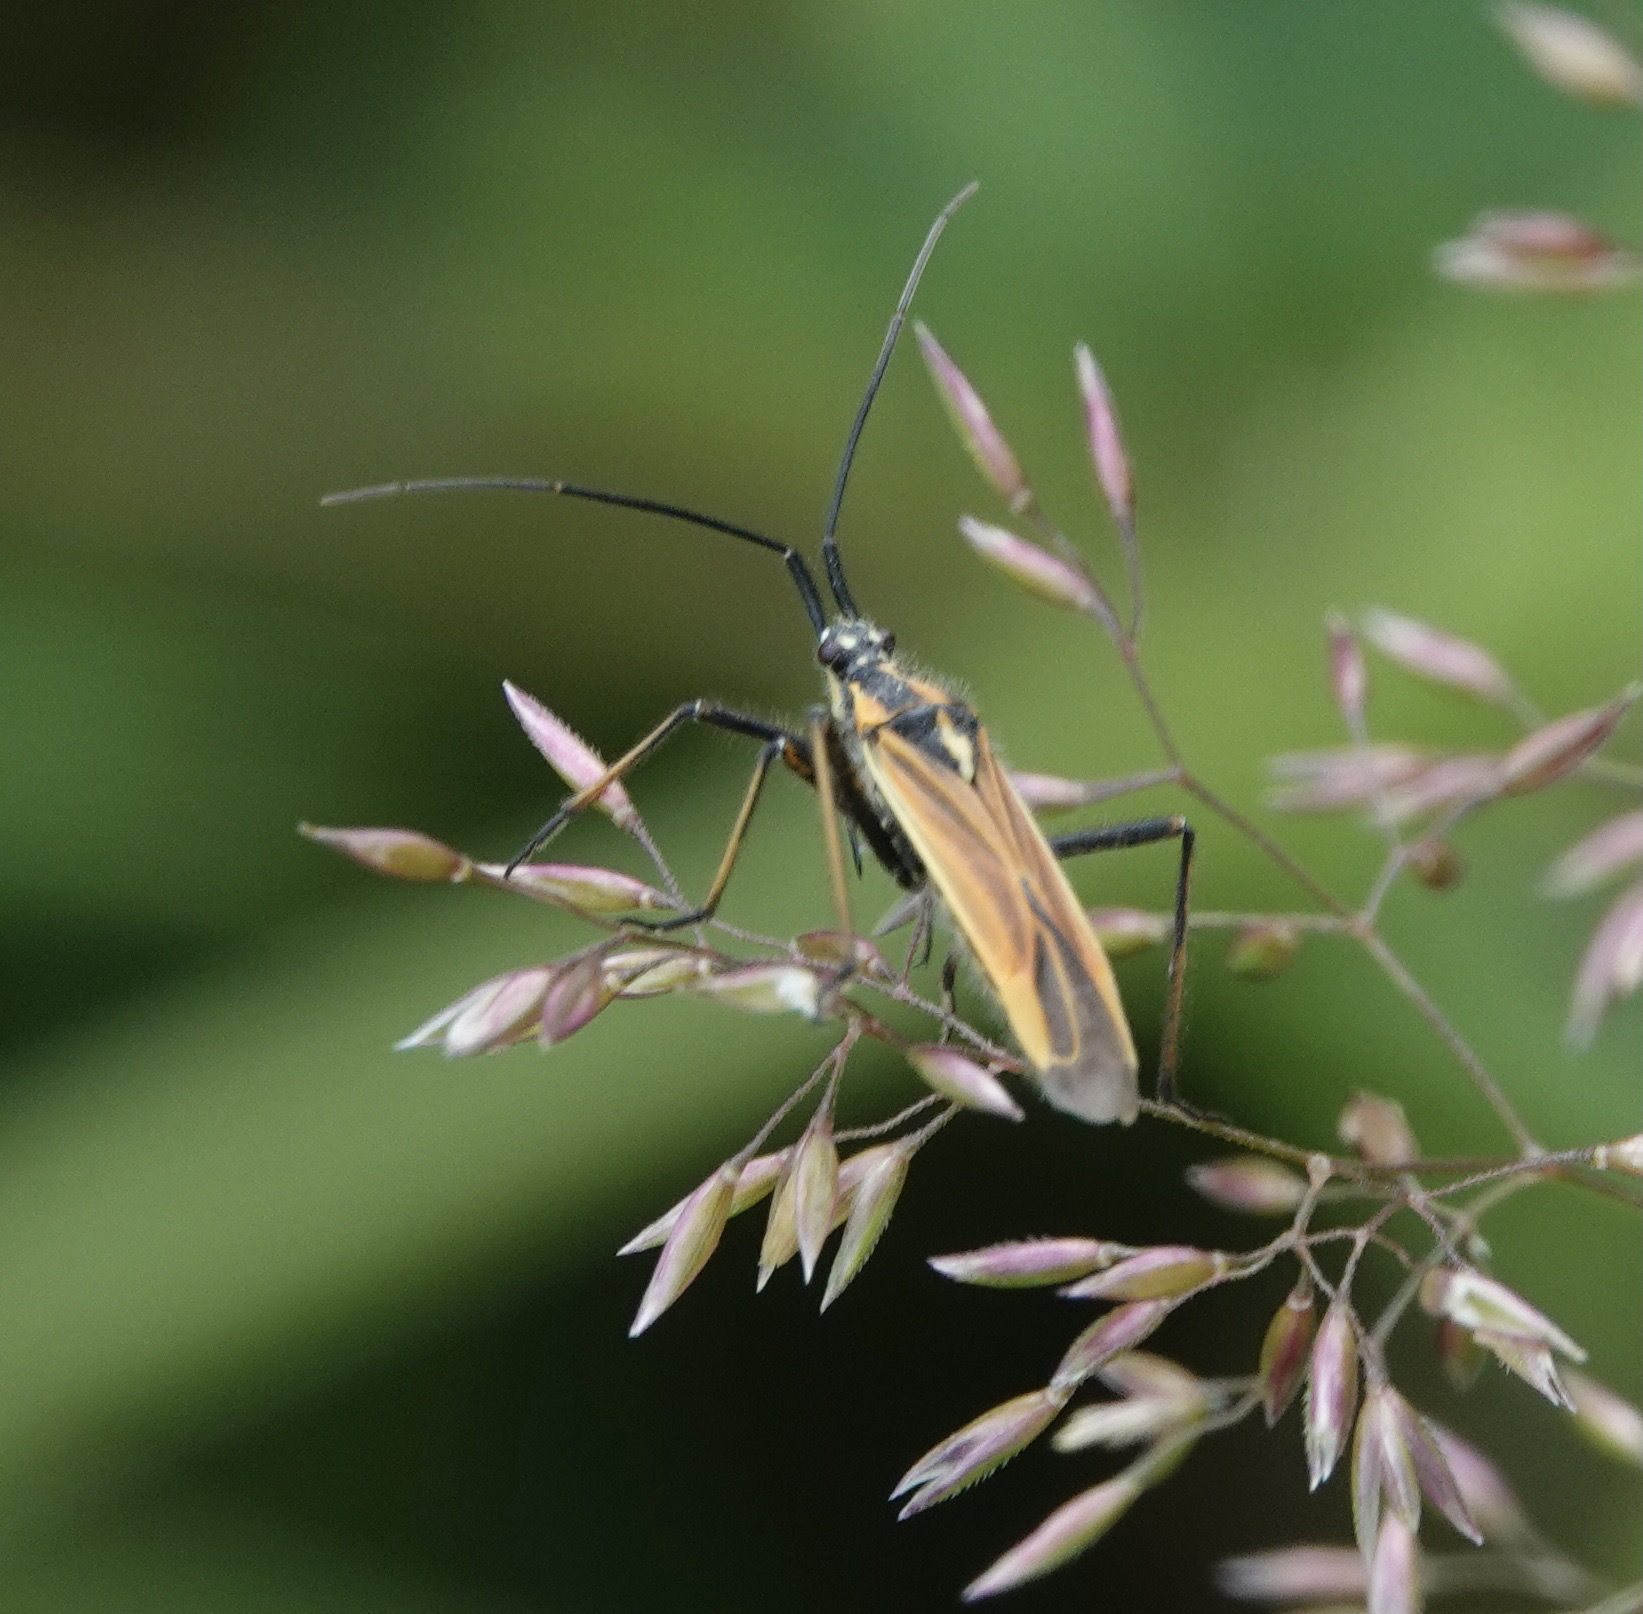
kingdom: Animalia
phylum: Arthropoda
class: Insecta
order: Hemiptera
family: Miridae
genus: Leptopterna
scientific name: Leptopterna dolabrata
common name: Meadow plant bug
